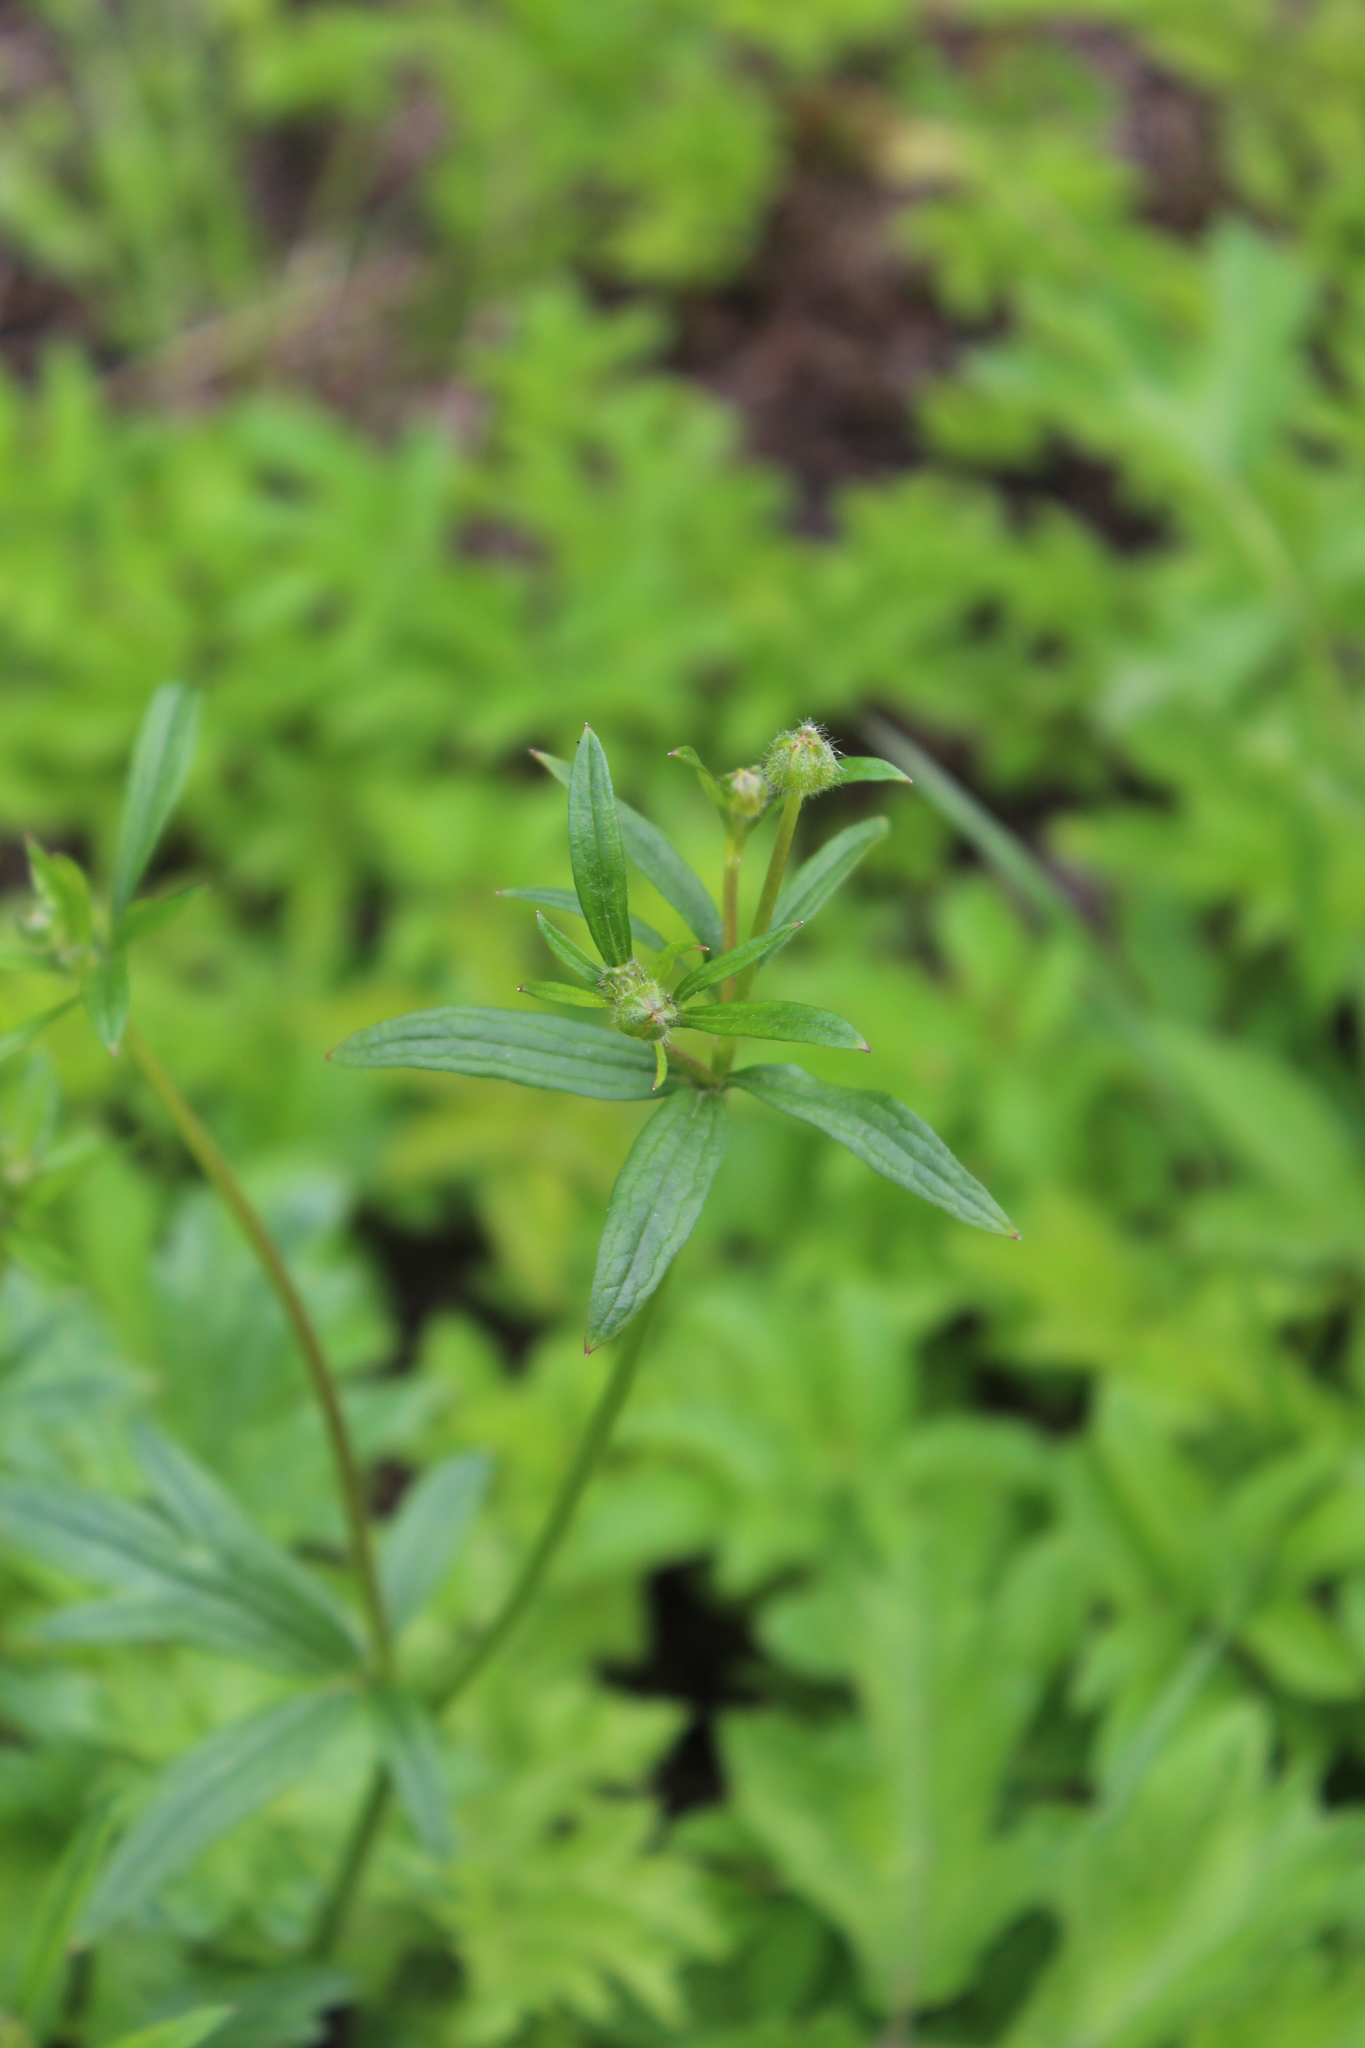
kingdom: Plantae
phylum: Tracheophyta
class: Magnoliopsida
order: Ranunculales
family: Ranunculaceae
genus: Ranunculus
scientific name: Ranunculus polyanthemos
